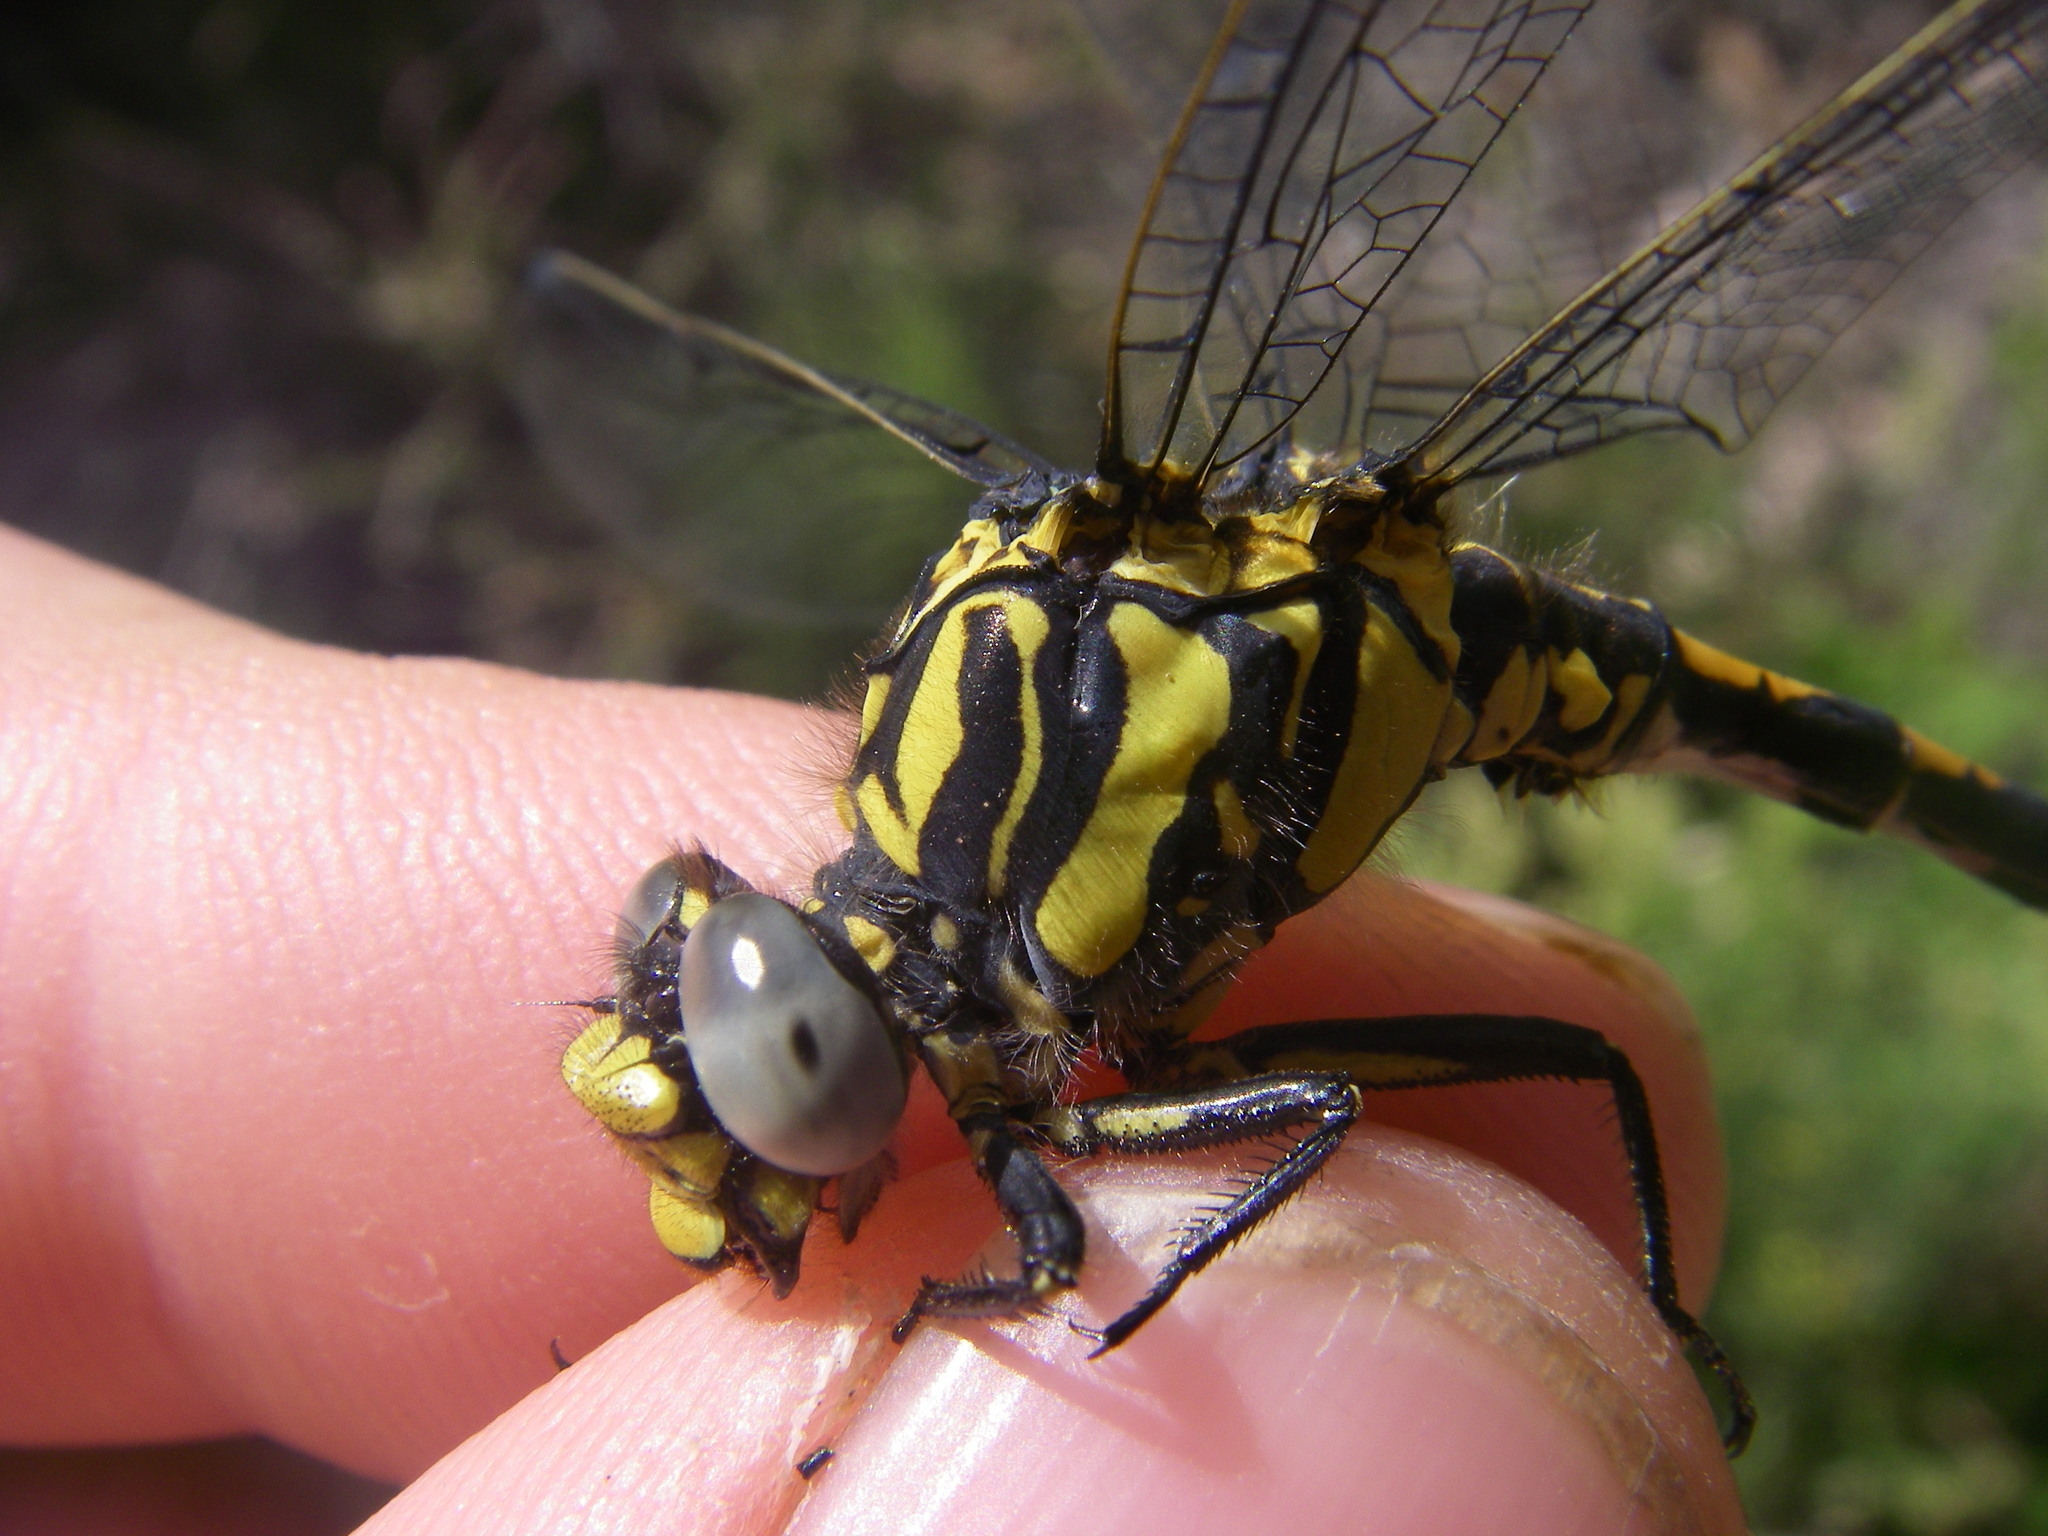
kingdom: Animalia
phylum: Arthropoda
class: Insecta
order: Odonata
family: Gomphidae
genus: Onychogomphus
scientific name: Onychogomphus uncatus
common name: Large pincertail
